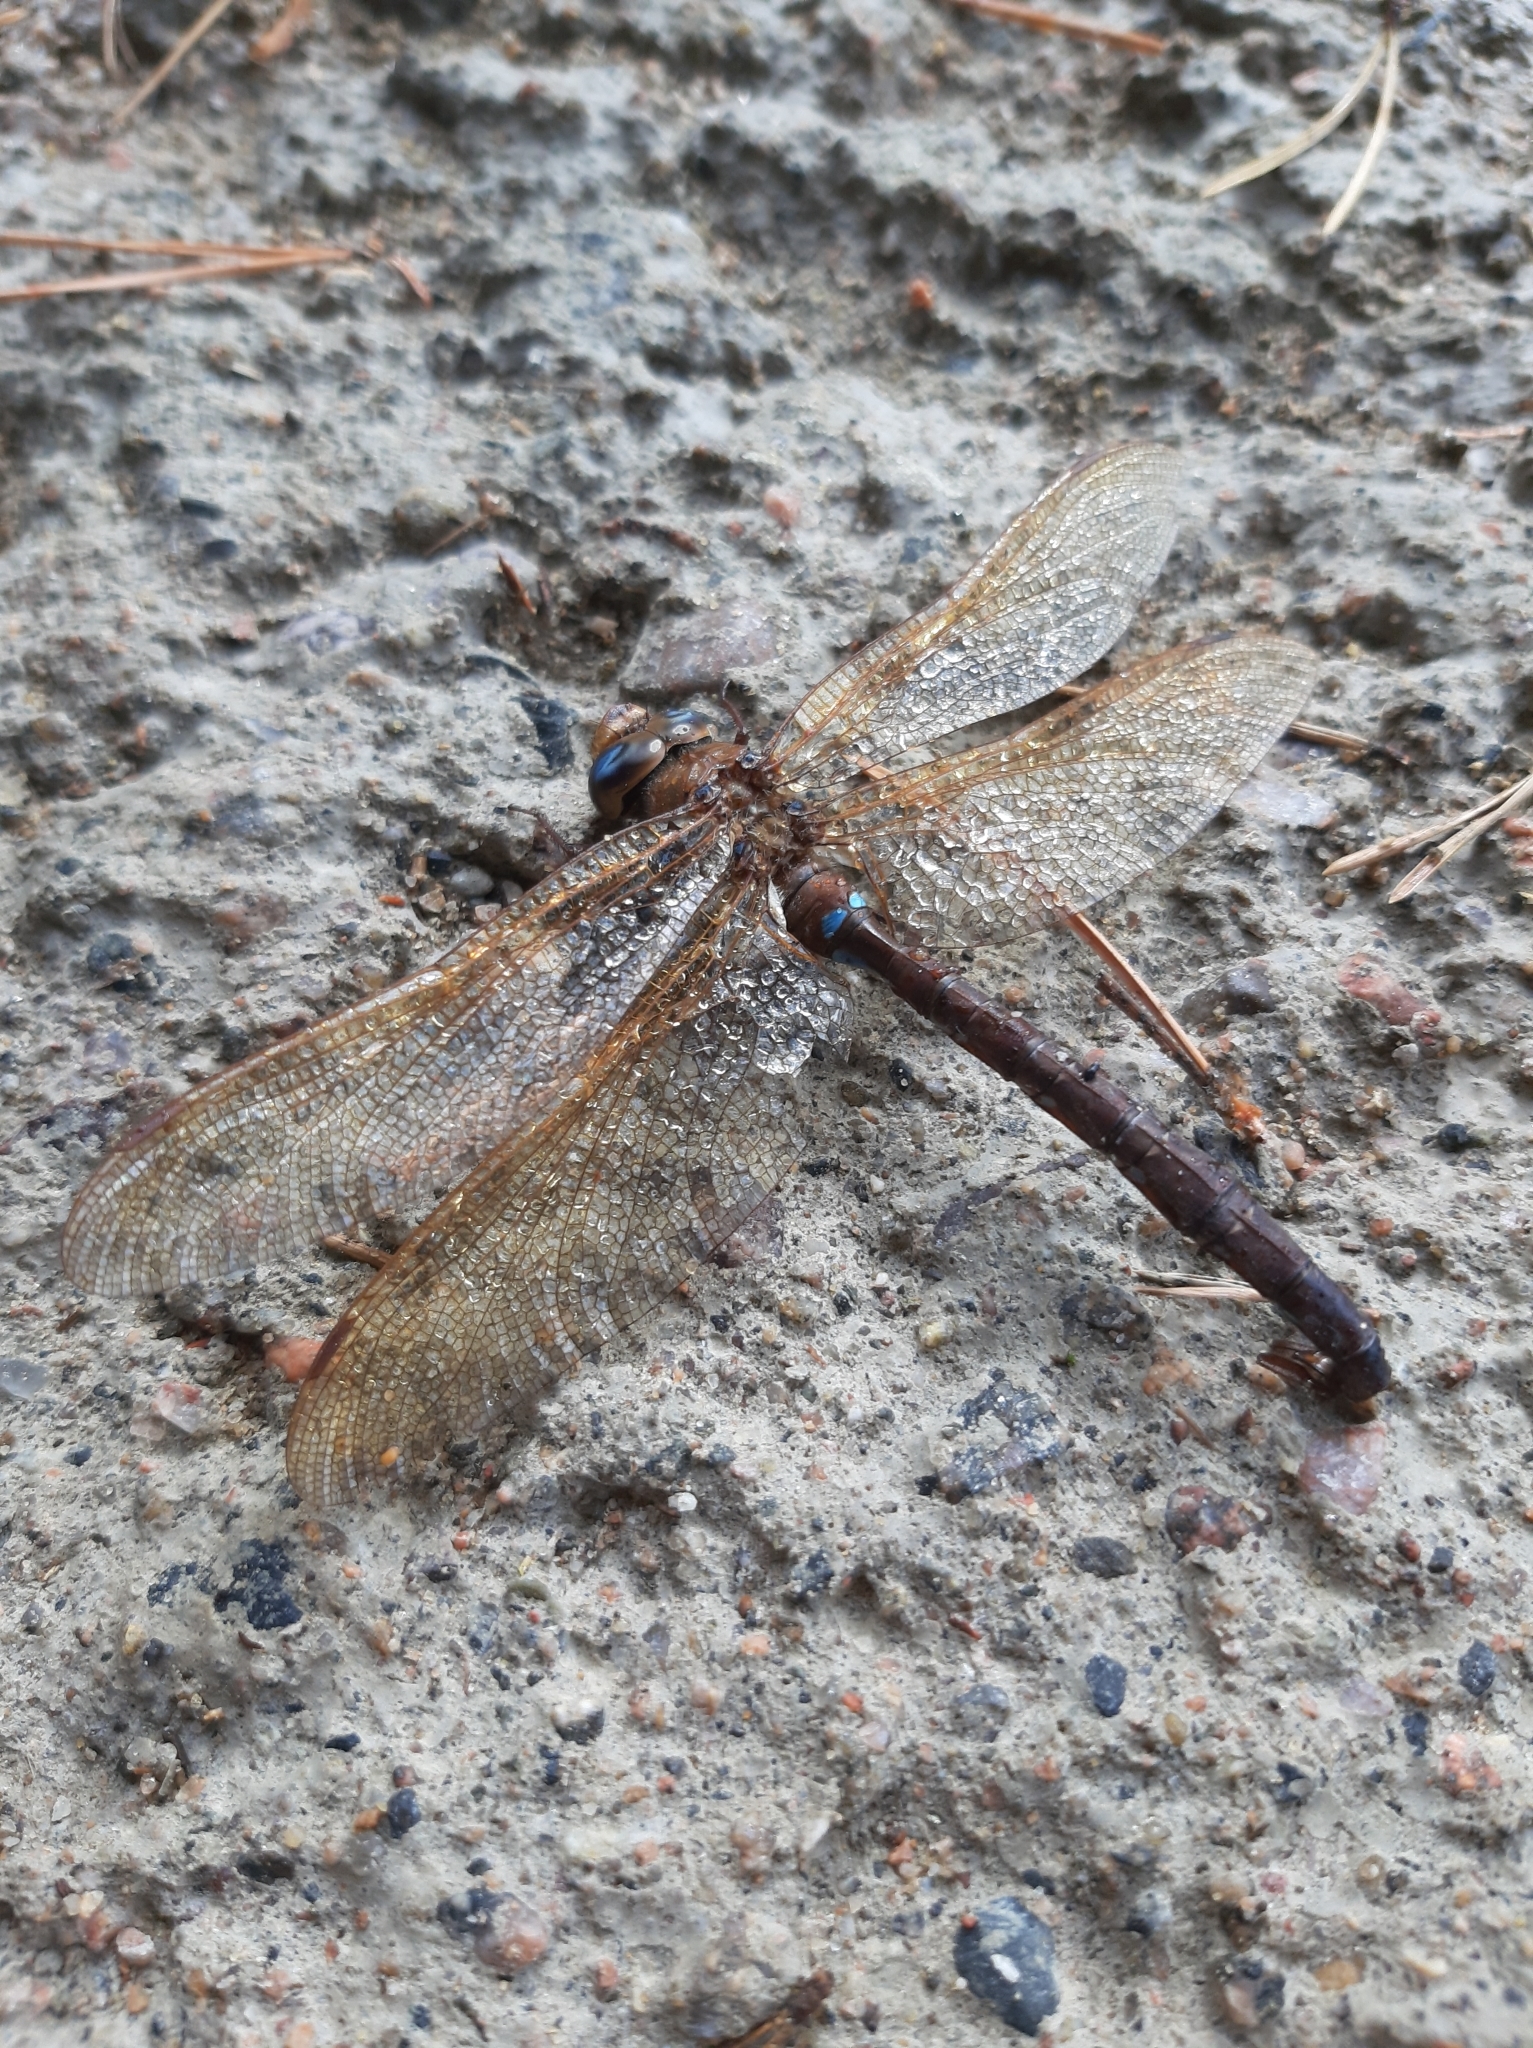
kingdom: Animalia
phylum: Arthropoda
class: Insecta
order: Odonata
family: Aeshnidae
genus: Aeshna
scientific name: Aeshna grandis
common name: Brown hawker
